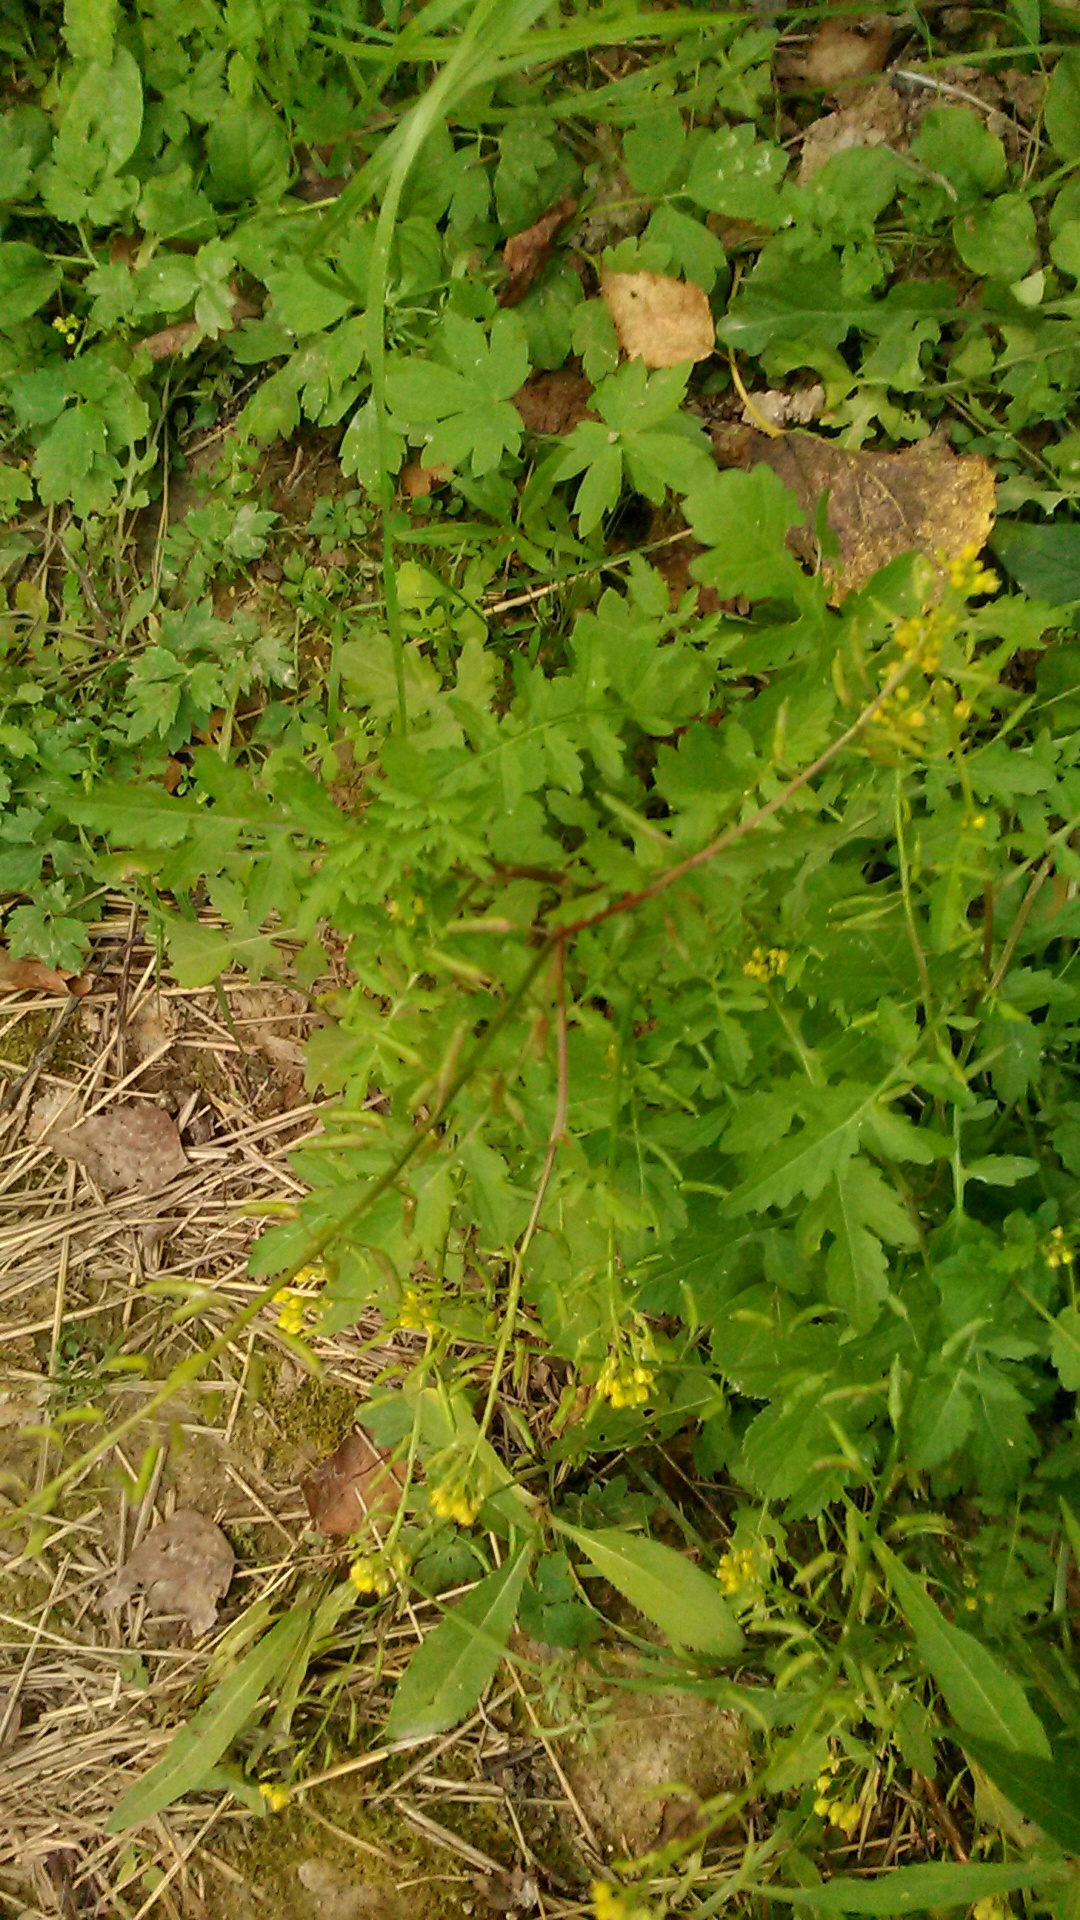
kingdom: Plantae
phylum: Tracheophyta
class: Magnoliopsida
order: Brassicales
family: Brassicaceae
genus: Rorippa
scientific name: Rorippa palustris
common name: Marsh yellow-cress
